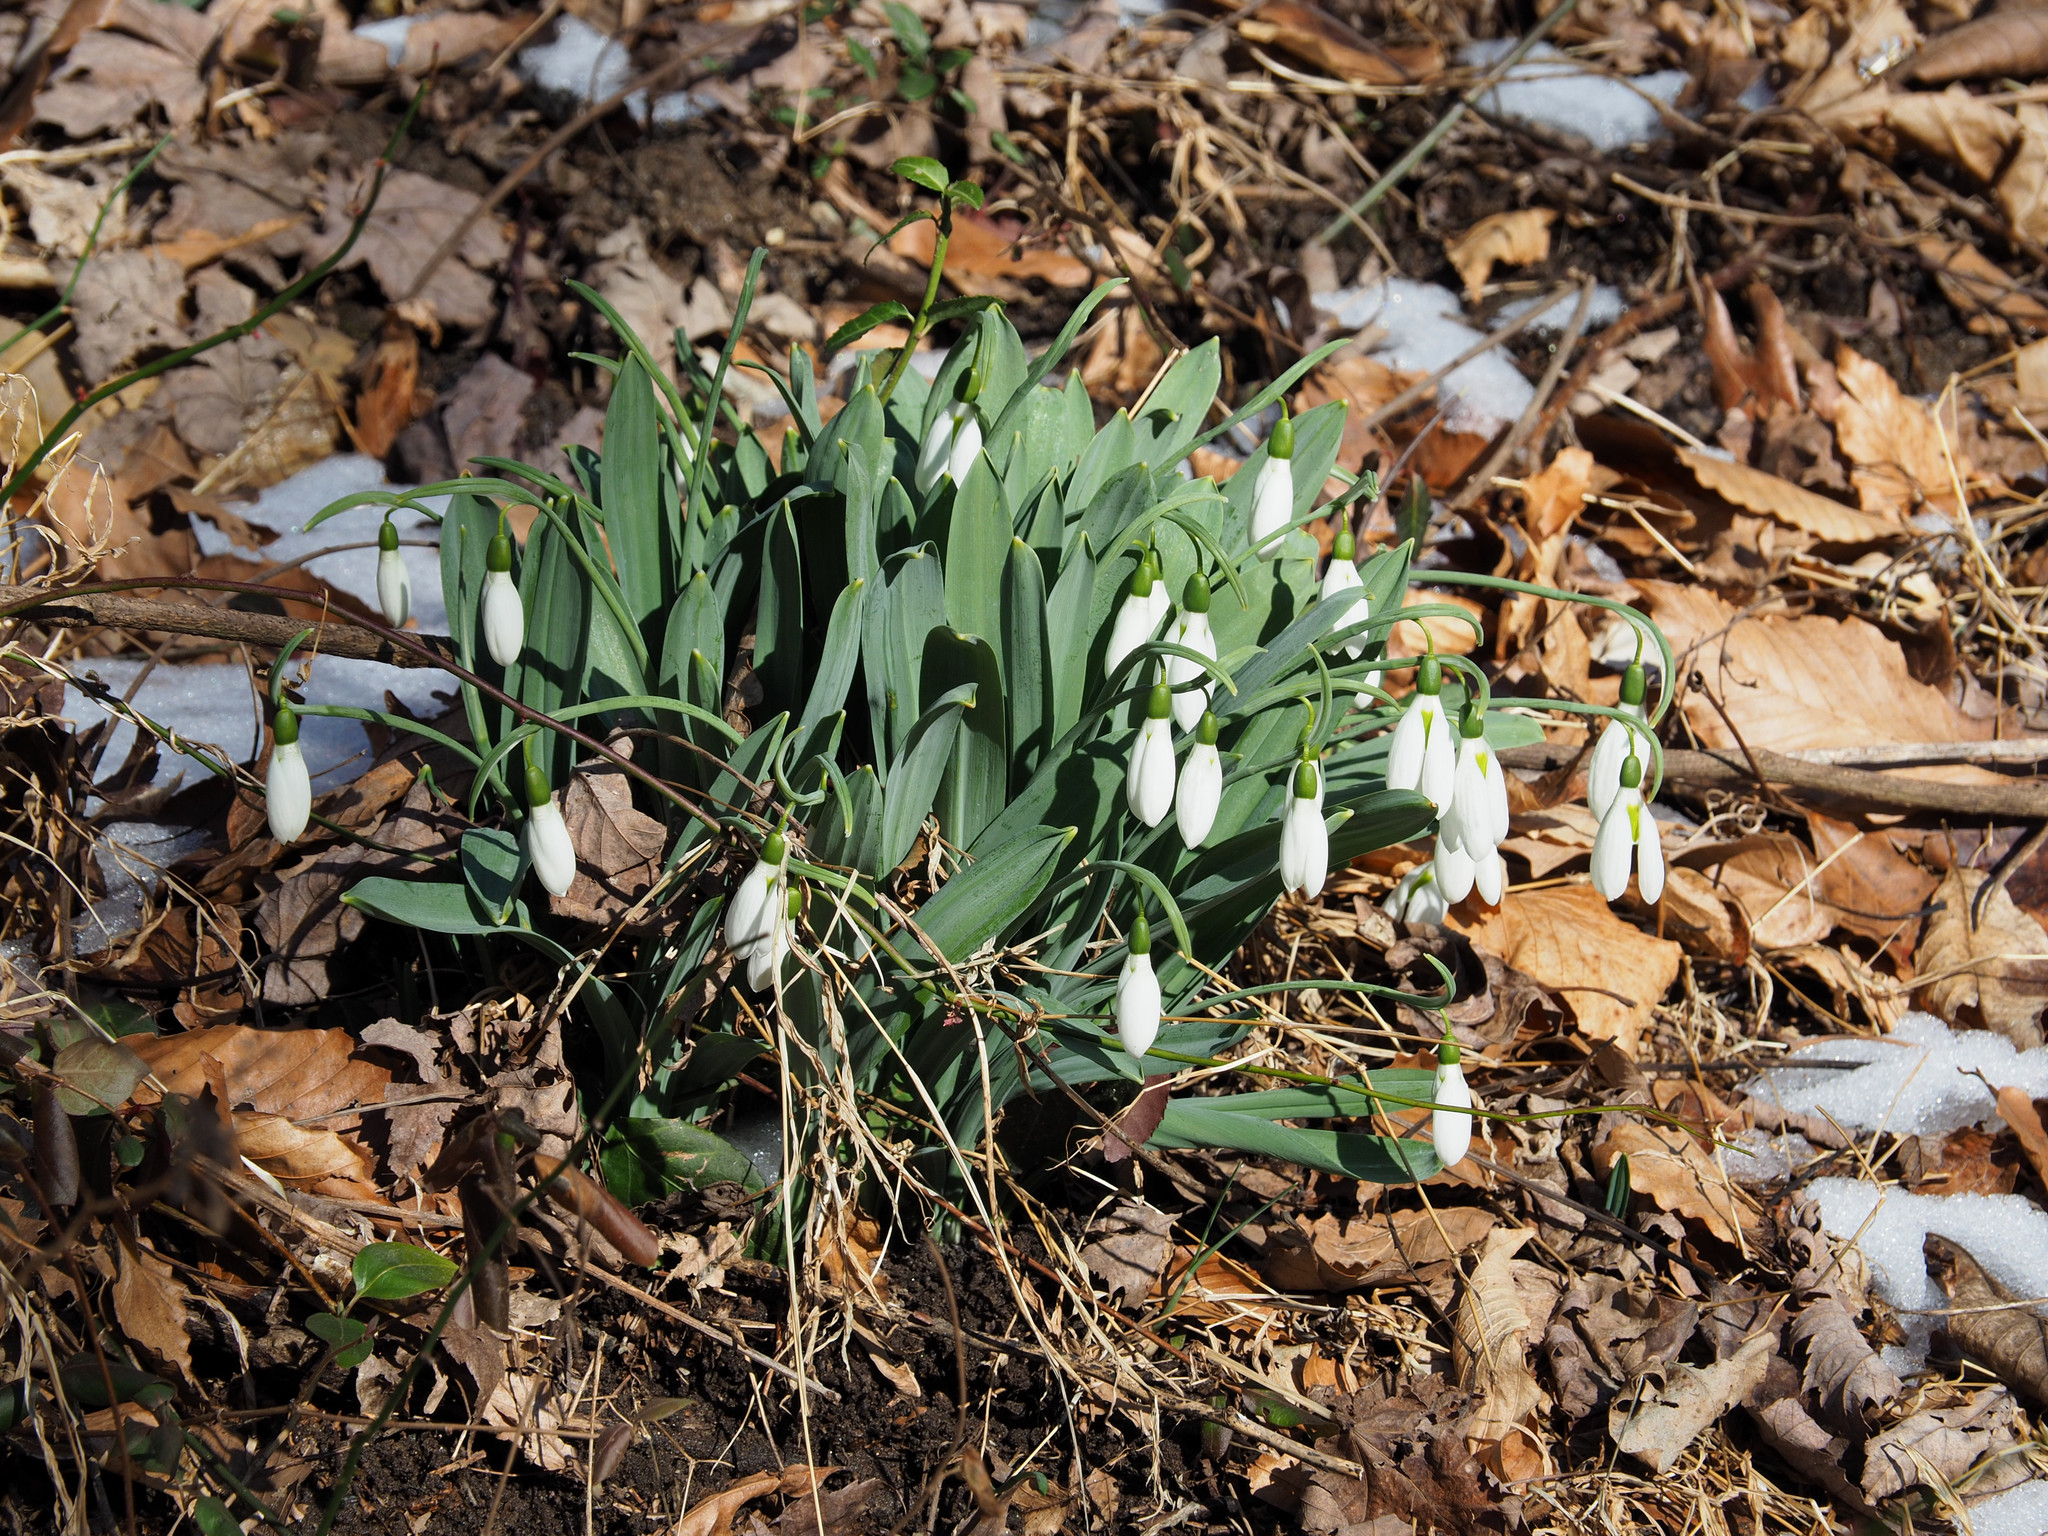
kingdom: Plantae
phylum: Tracheophyta
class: Liliopsida
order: Asparagales
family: Amaryllidaceae
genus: Galanthus
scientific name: Galanthus elwesii
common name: Greater snowdrop
